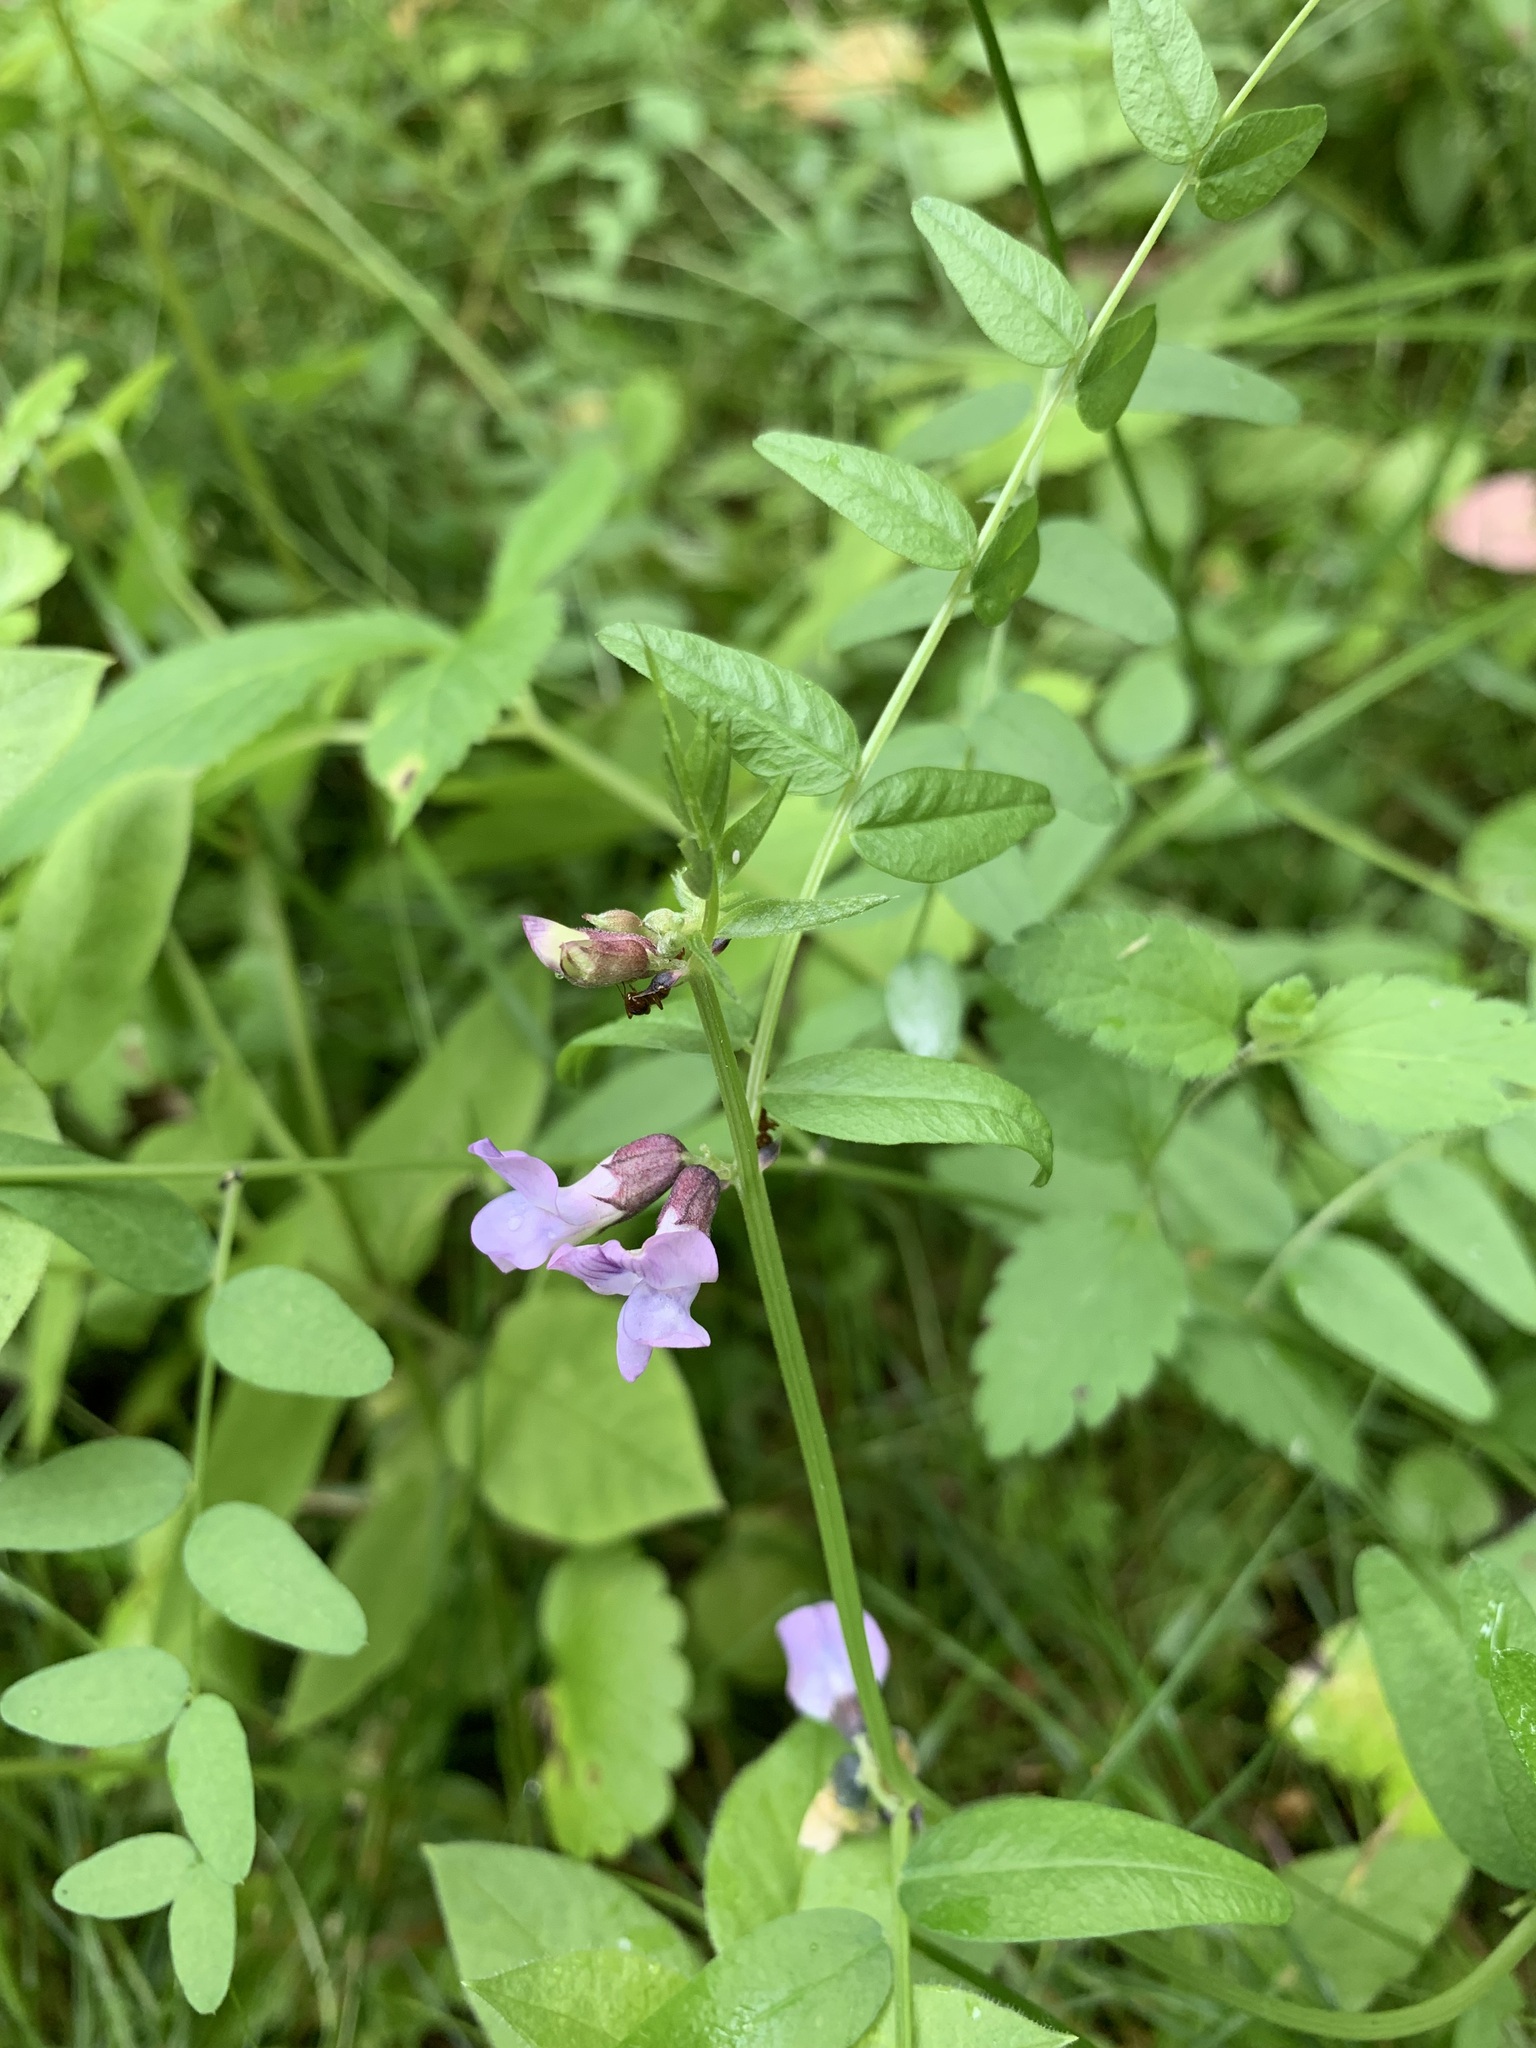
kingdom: Plantae
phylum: Tracheophyta
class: Magnoliopsida
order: Fabales
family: Fabaceae
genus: Vicia
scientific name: Vicia sepium
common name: Bush vetch
